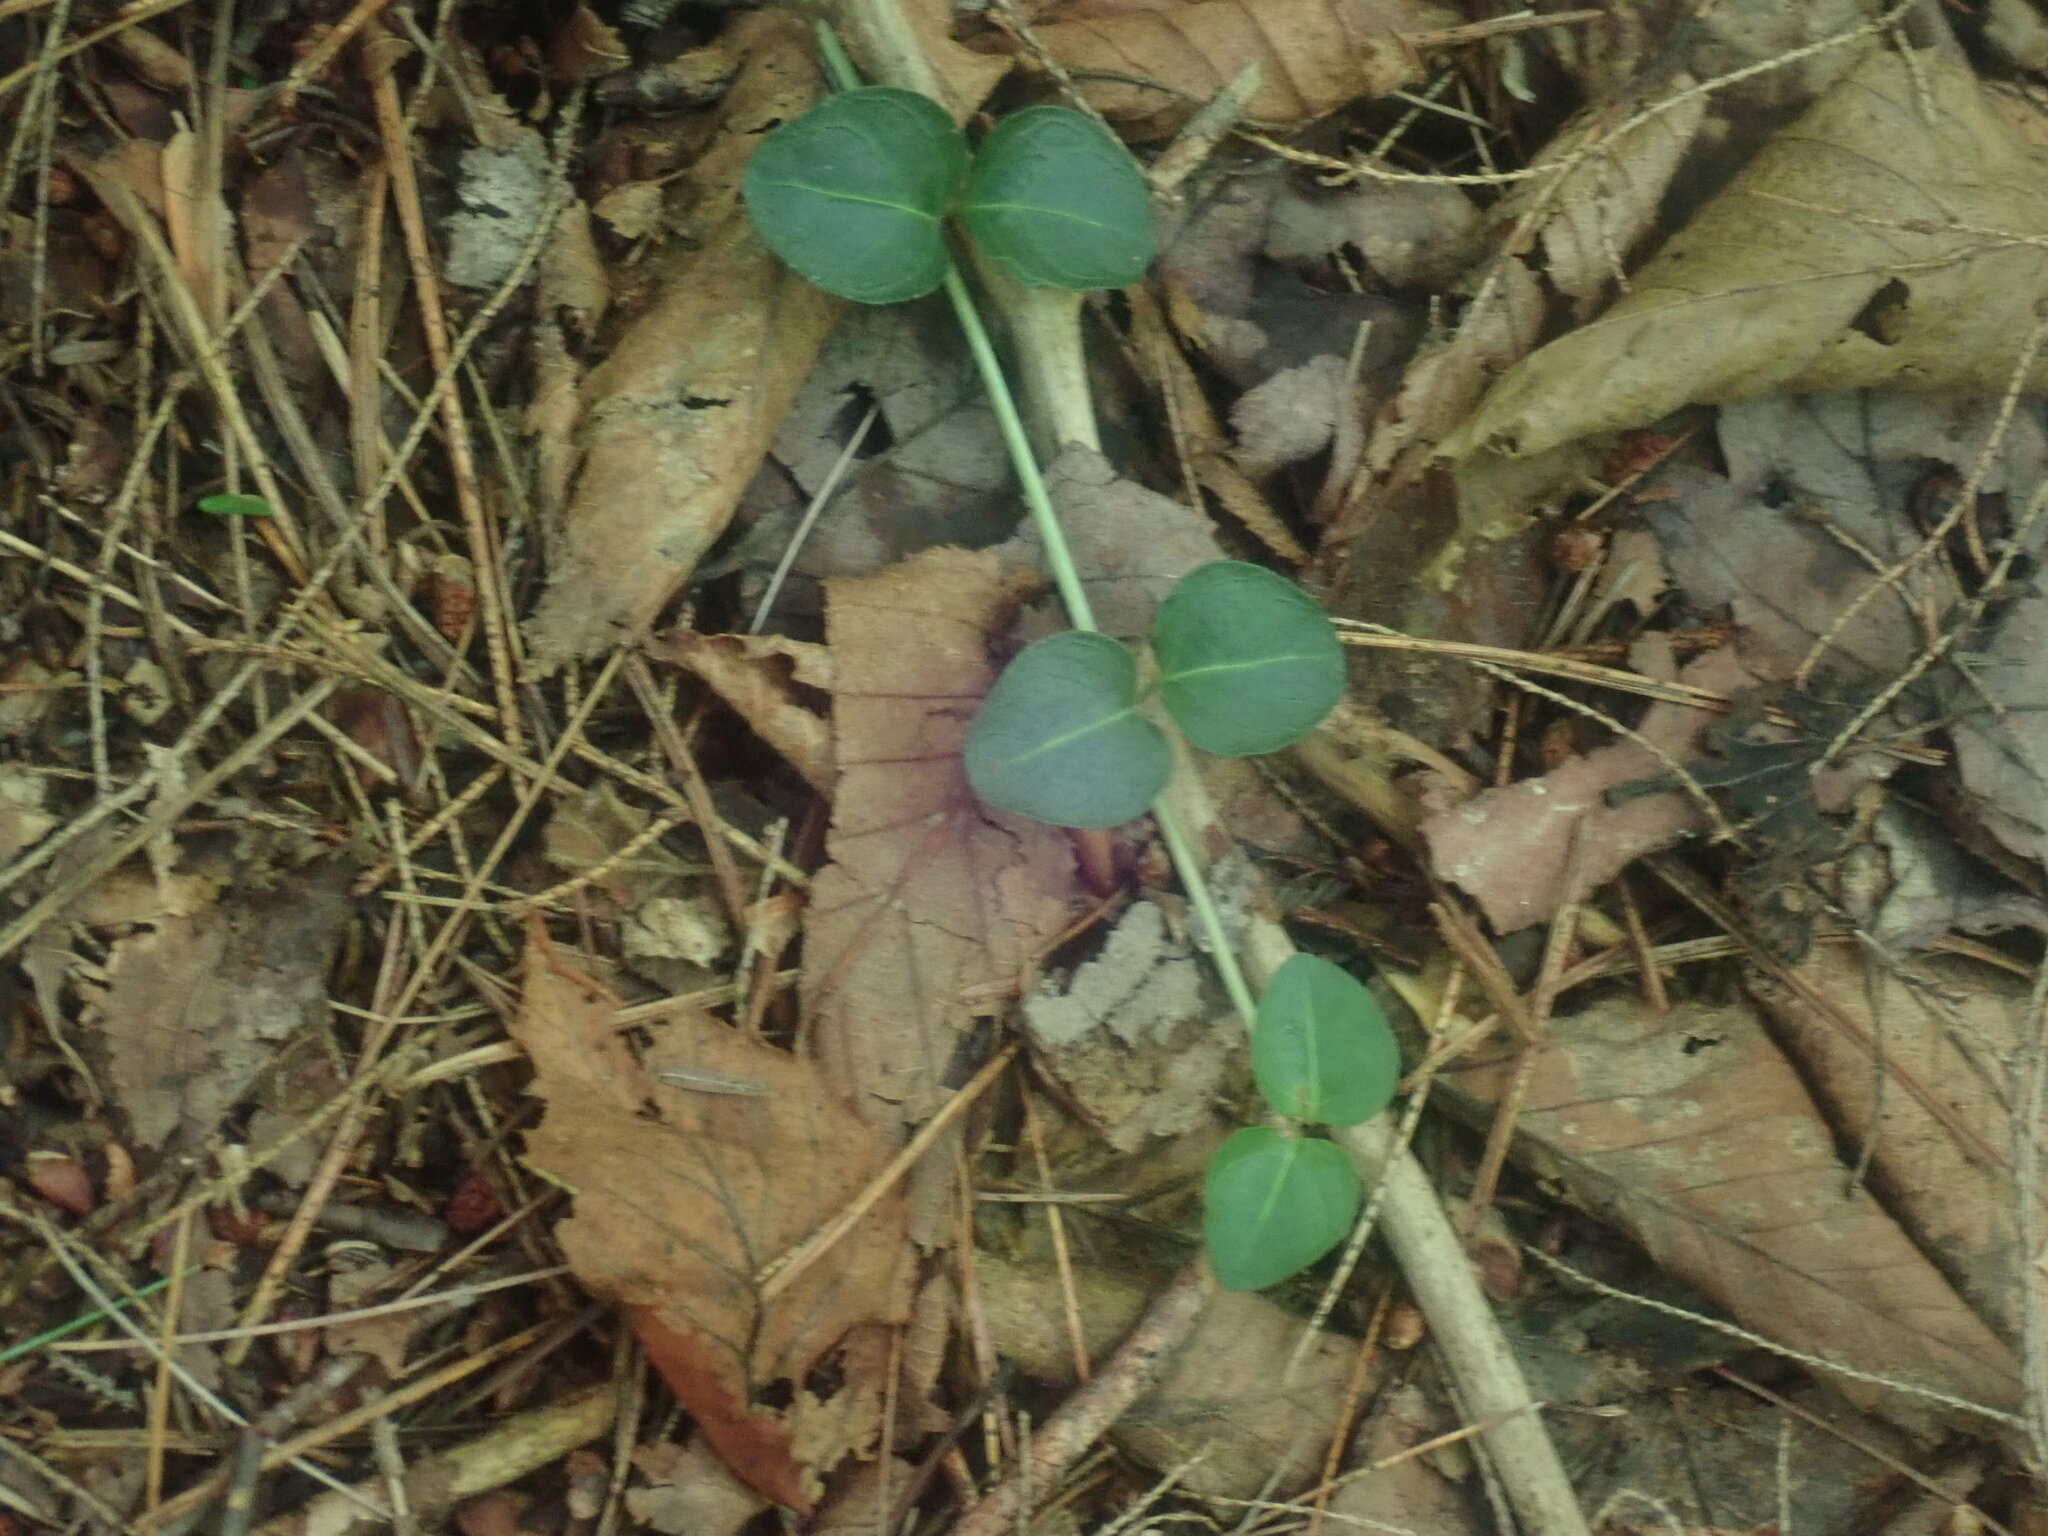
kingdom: Plantae
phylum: Tracheophyta
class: Magnoliopsida
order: Gentianales
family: Rubiaceae
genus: Mitchella
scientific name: Mitchella repens
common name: Partridge-berry
